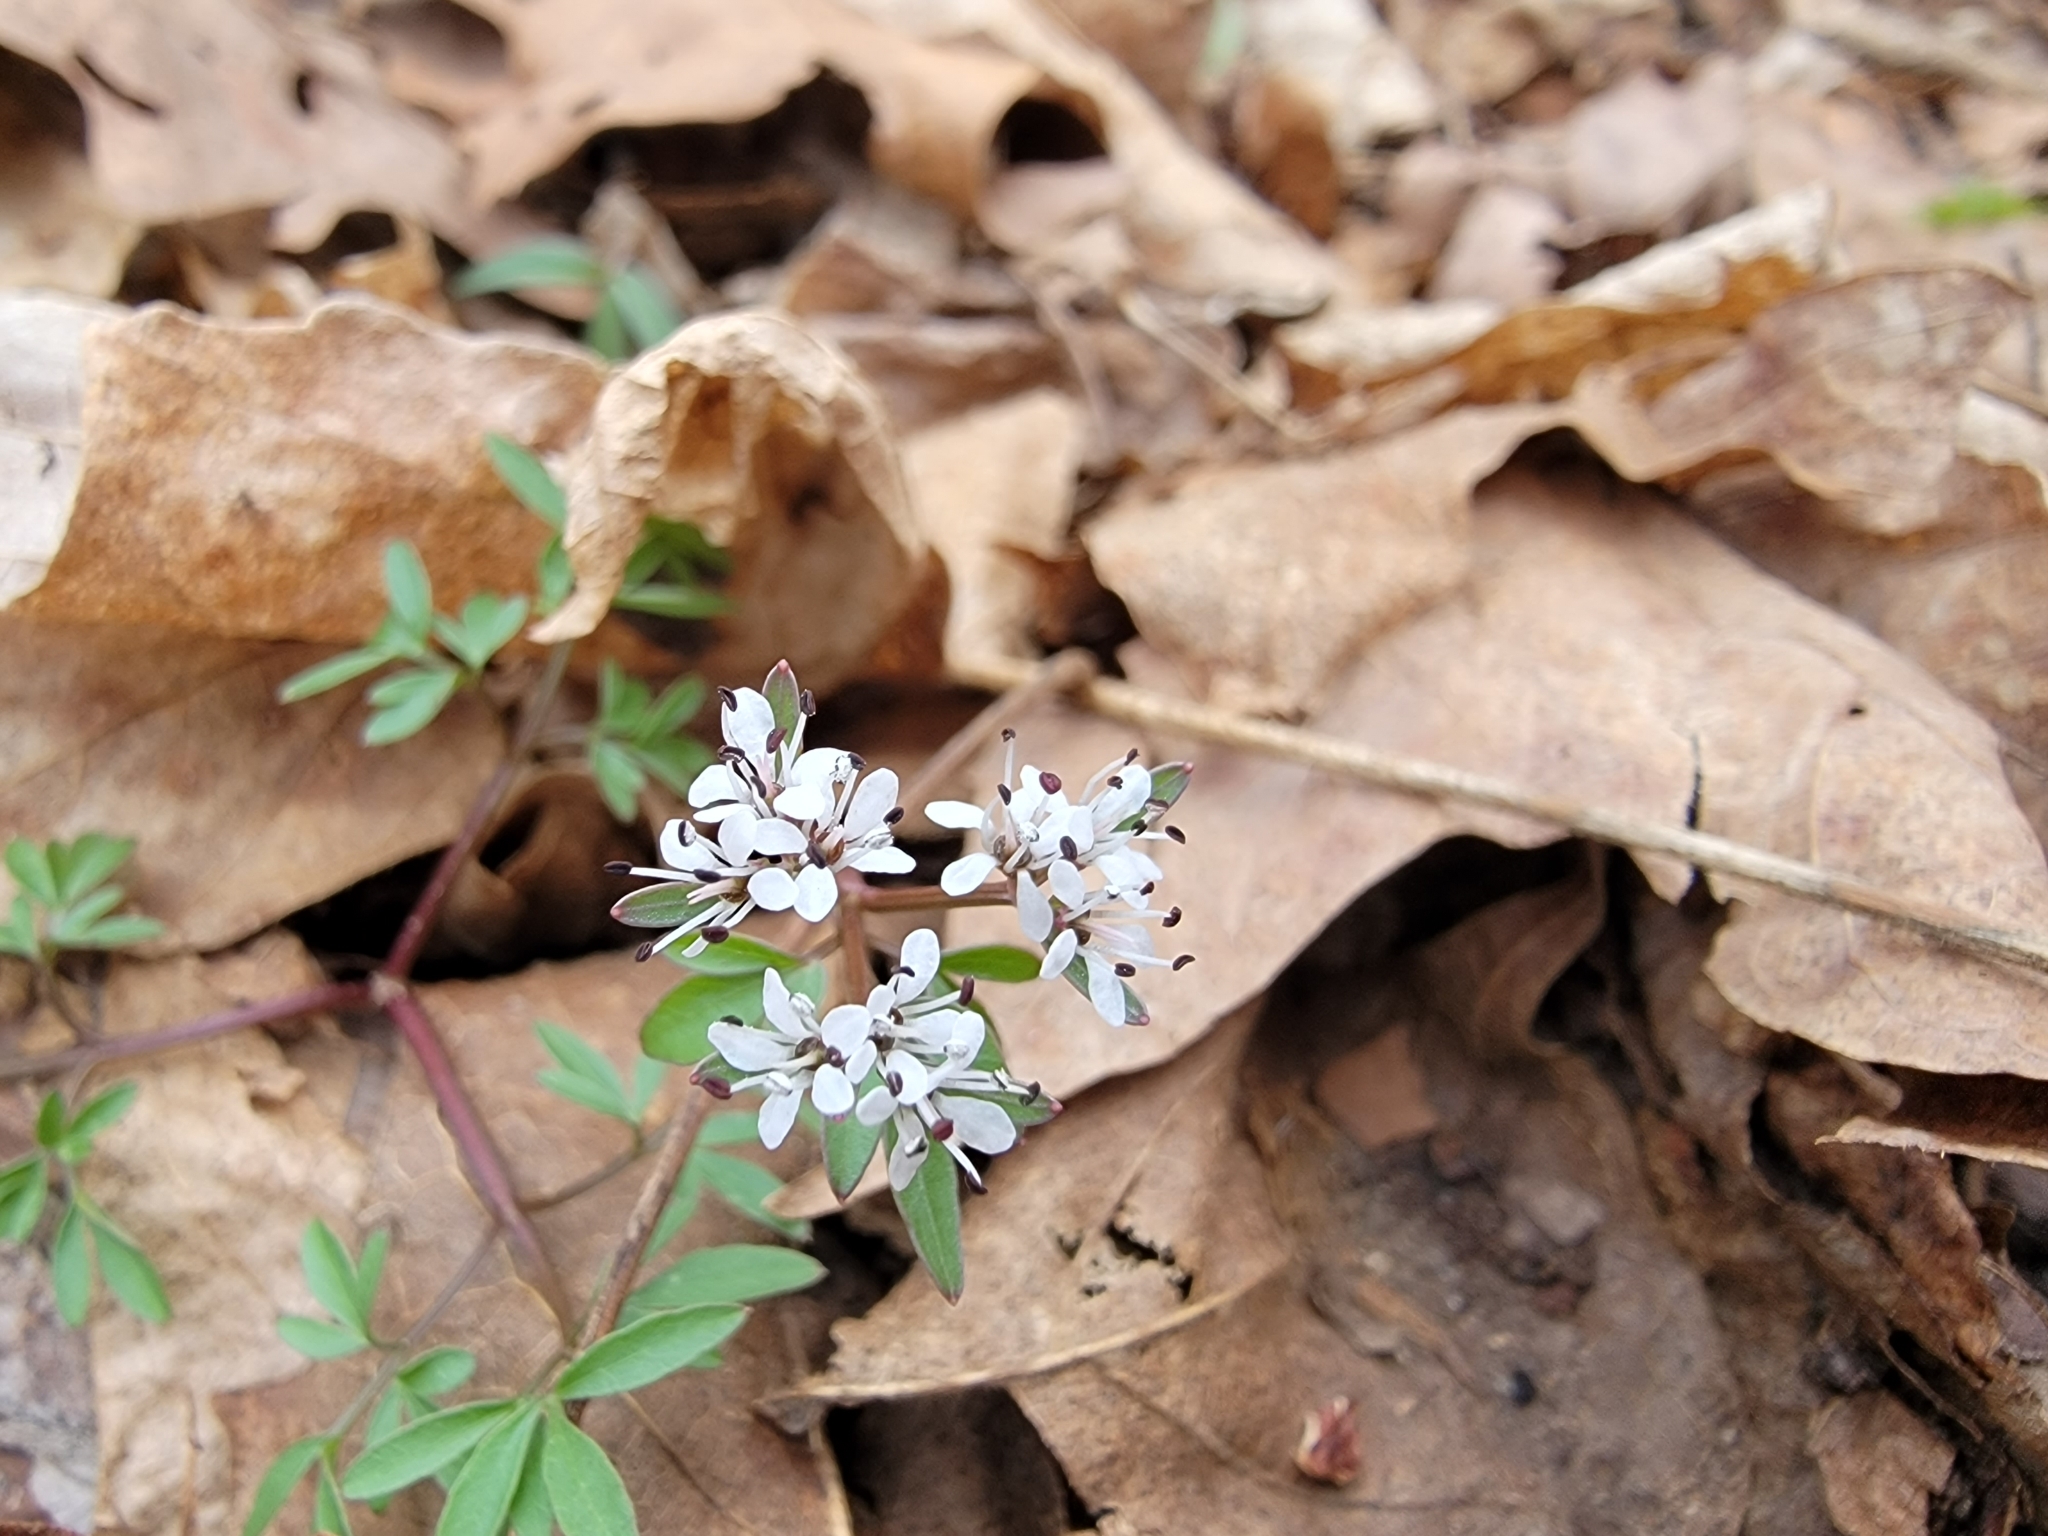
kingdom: Plantae
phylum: Tracheophyta
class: Magnoliopsida
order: Apiales
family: Apiaceae
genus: Erigenia
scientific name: Erigenia bulbosa
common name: Pepper-and-salt
